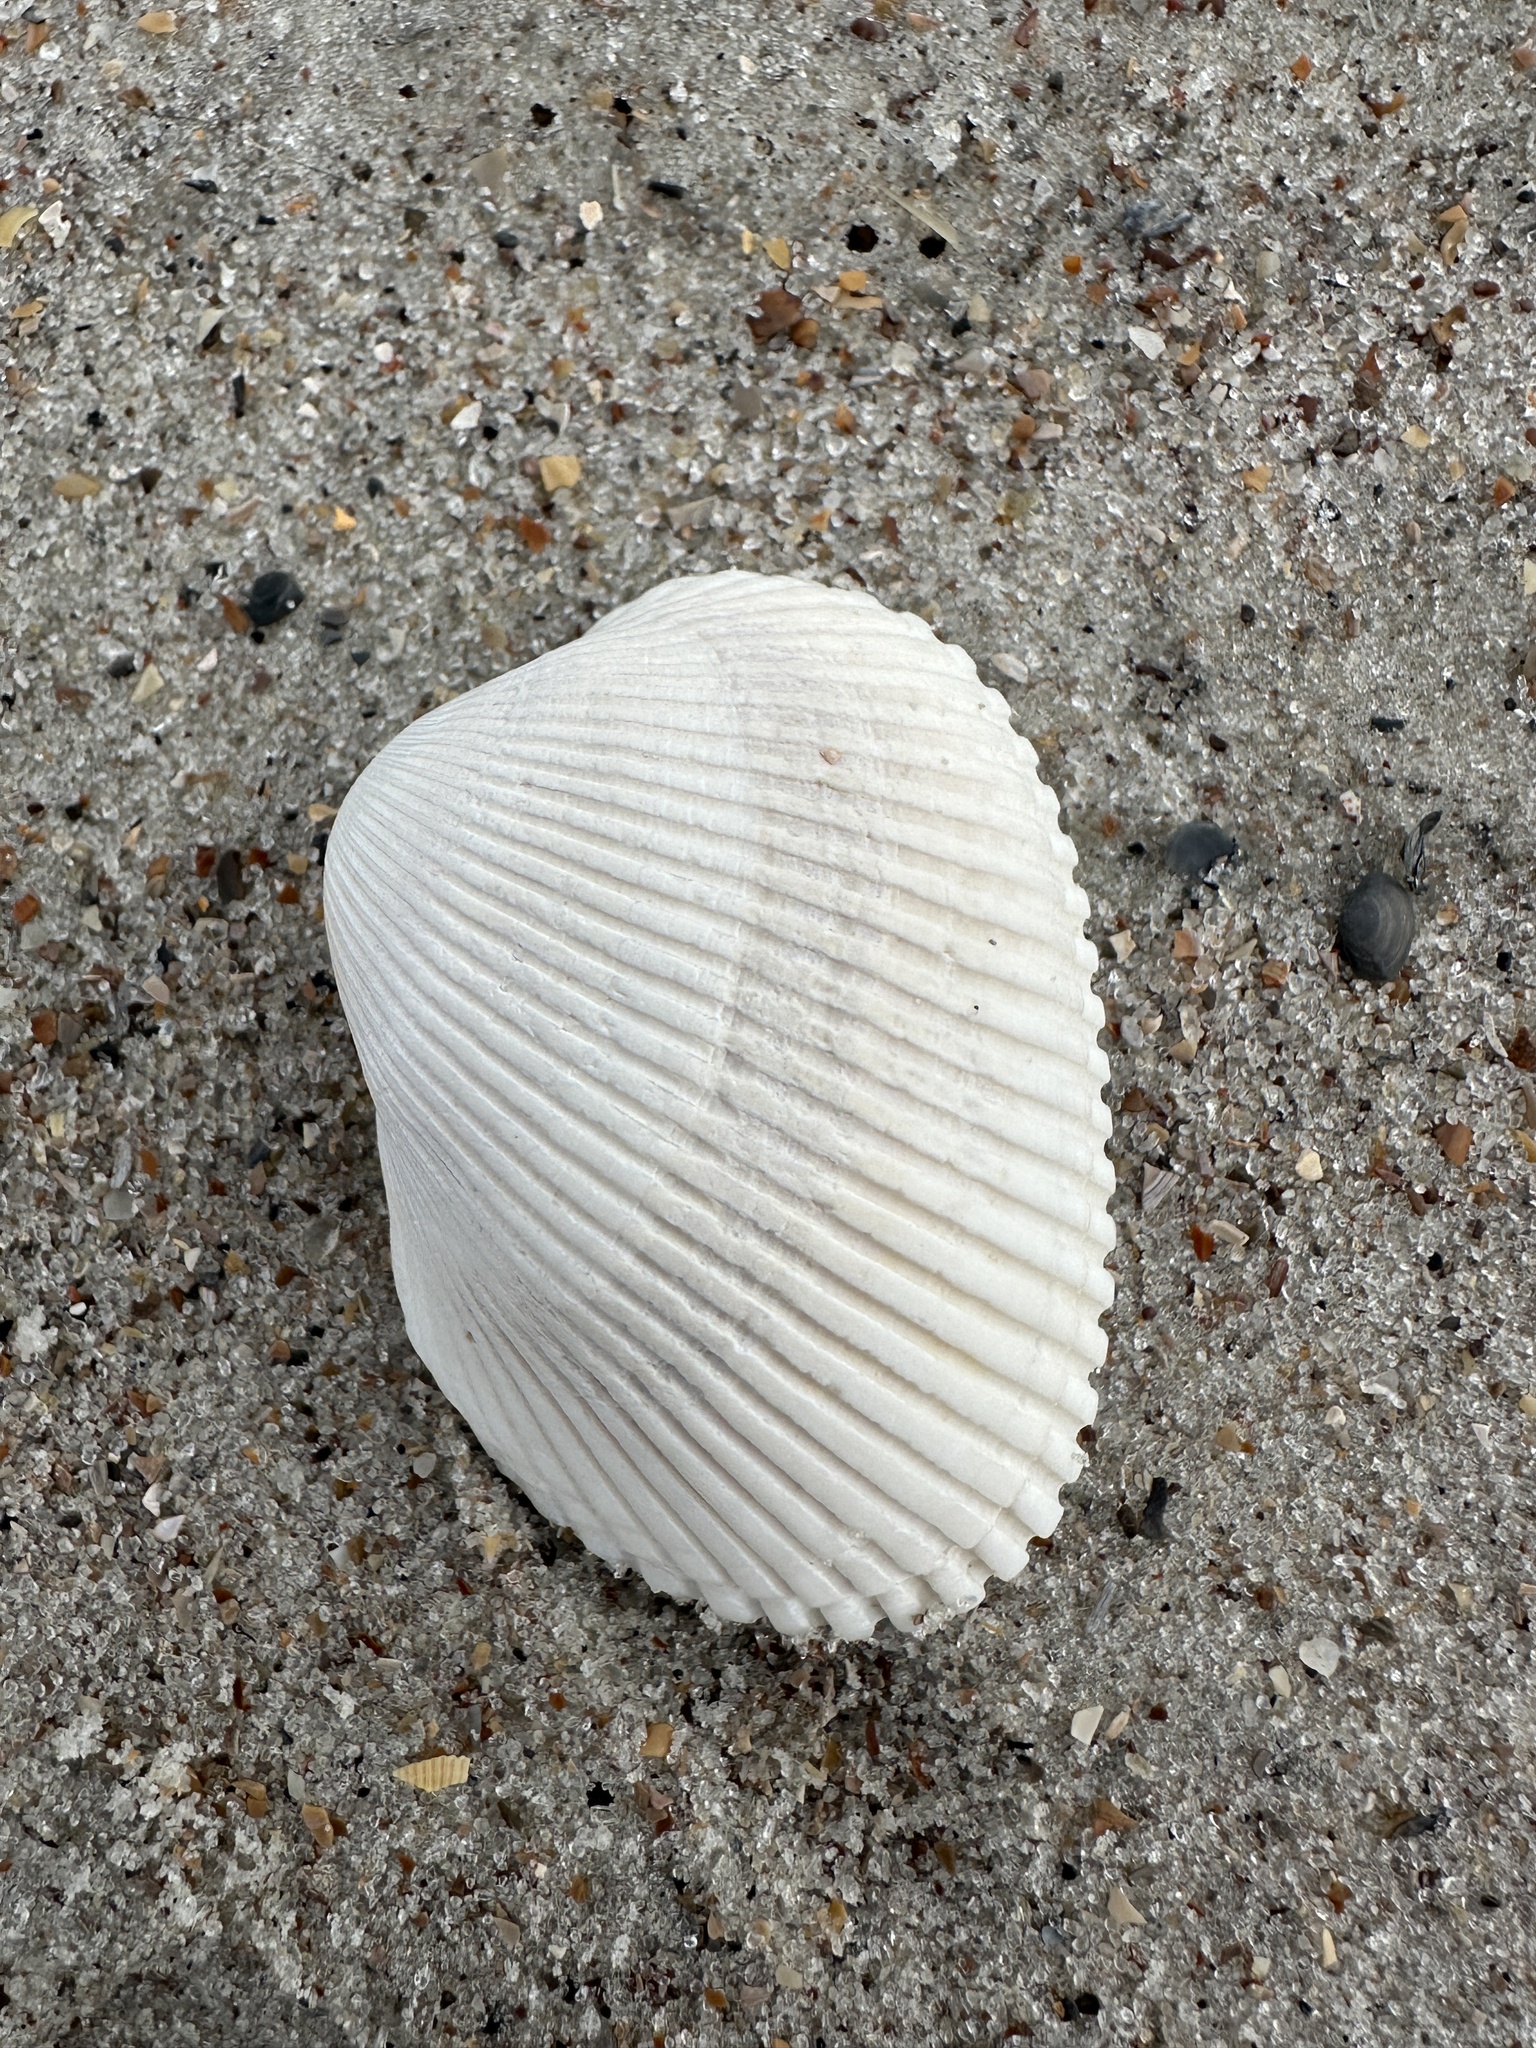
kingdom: Animalia
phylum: Mollusca
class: Bivalvia
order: Arcida
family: Arcidae
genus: Lunarca
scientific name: Lunarca ovalis
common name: Blood ark
